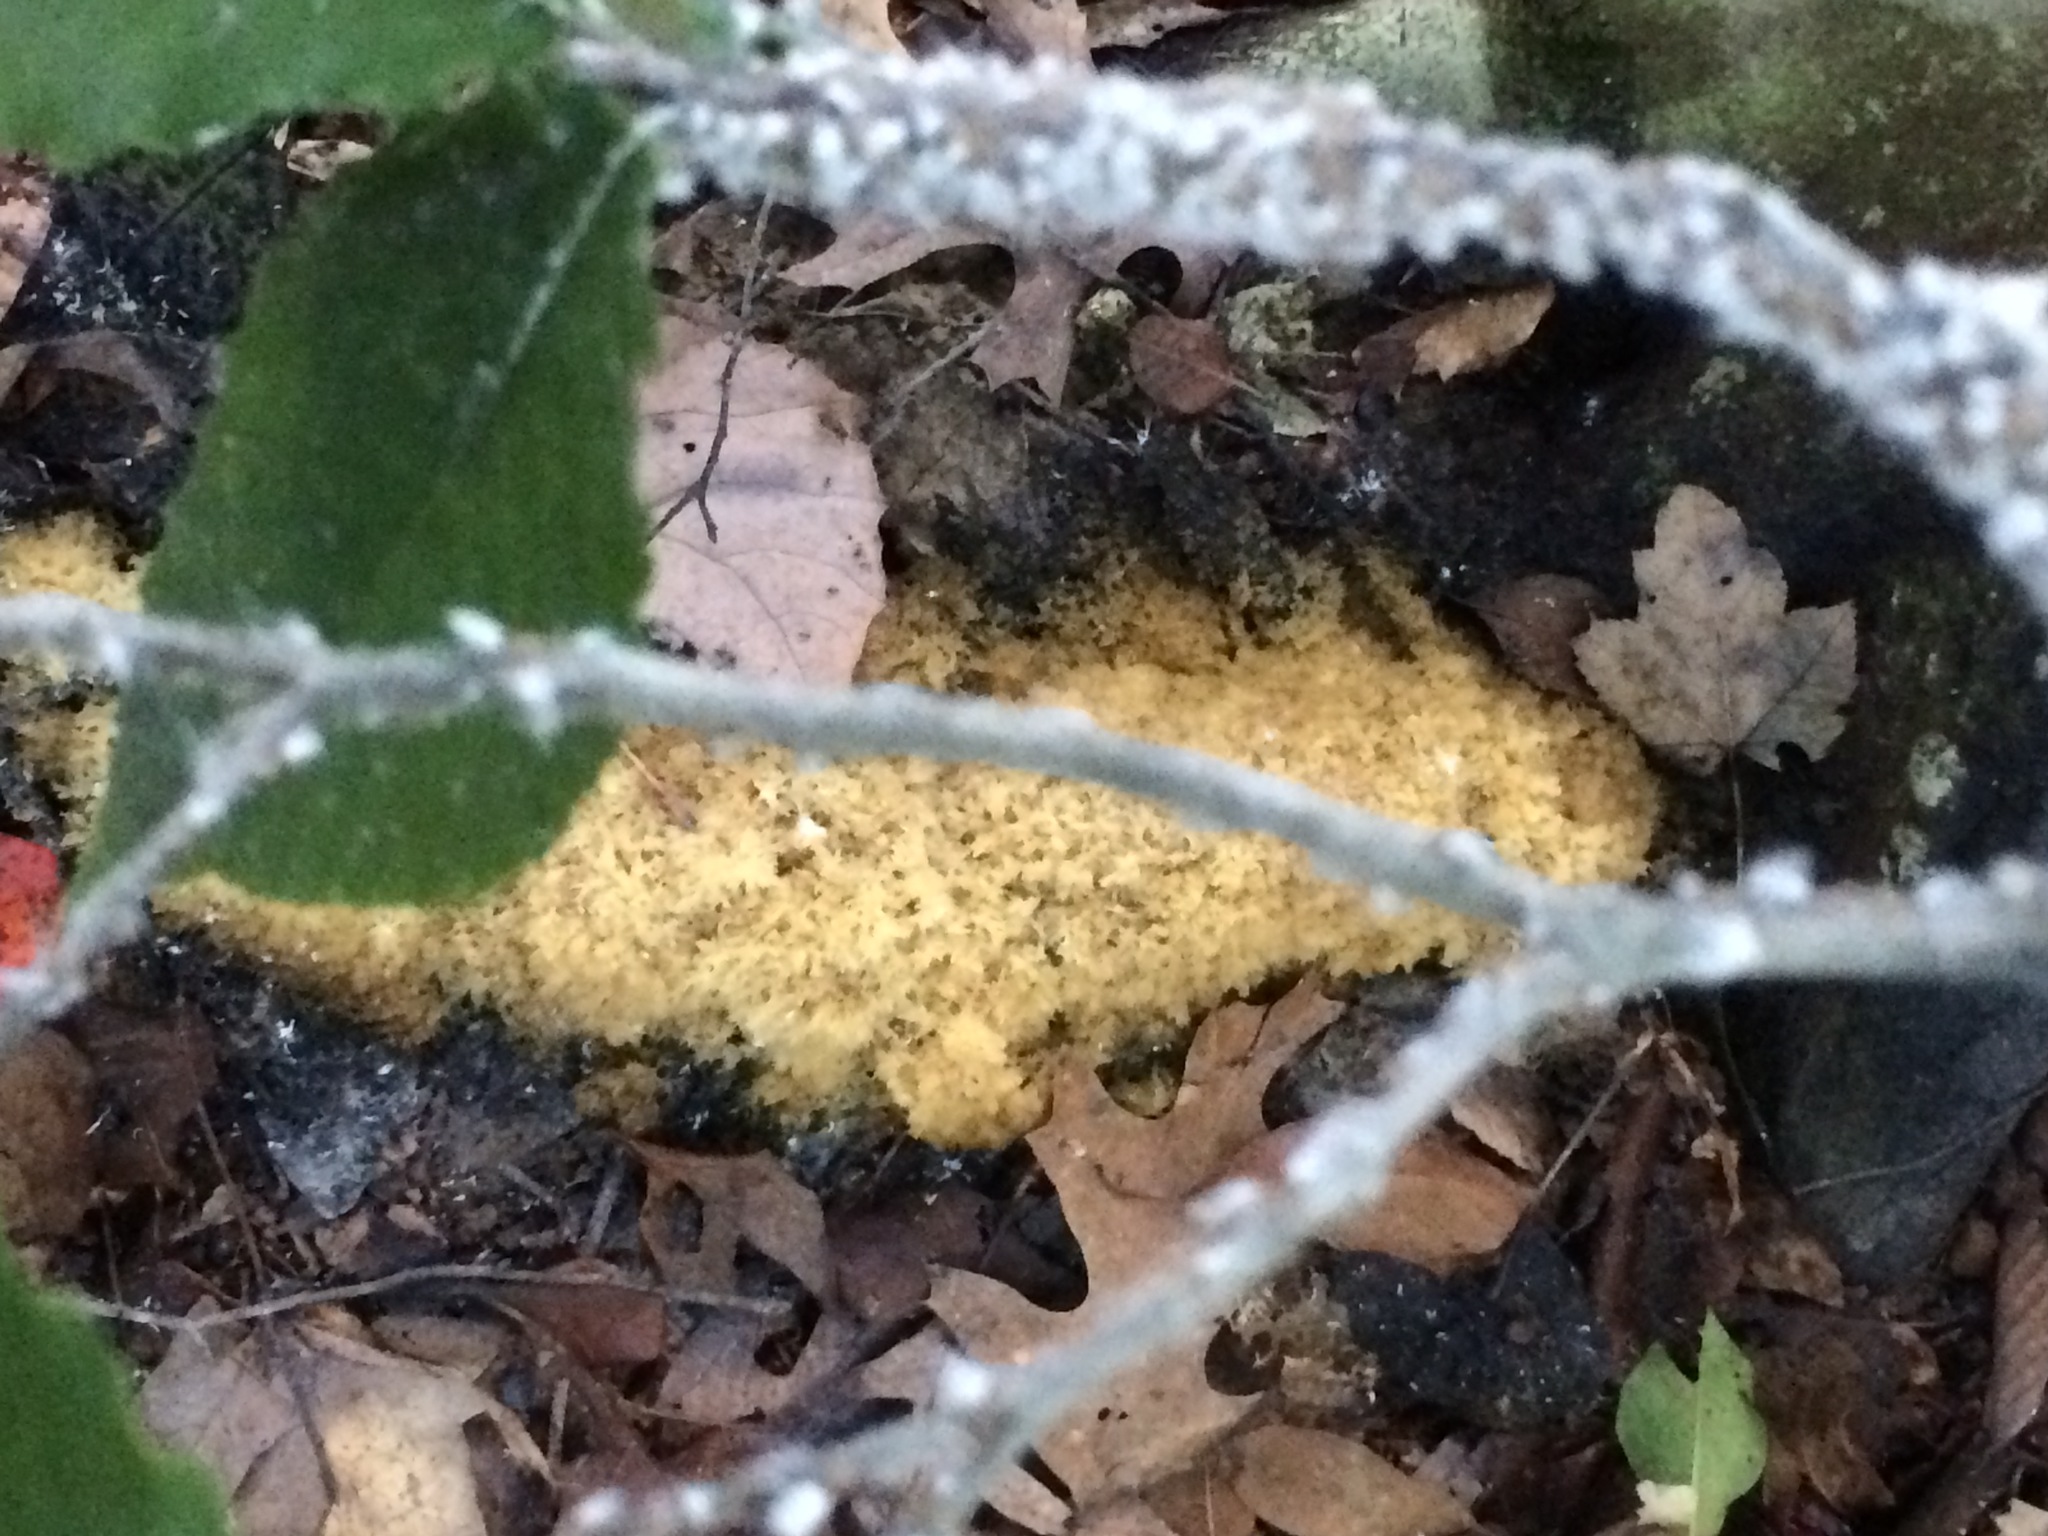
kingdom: Fungi
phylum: Ascomycota
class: Dothideomycetes
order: Capnodiales
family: Capnodiaceae
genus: Scorias
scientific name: Scorias spongiosa
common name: Black sooty mold
